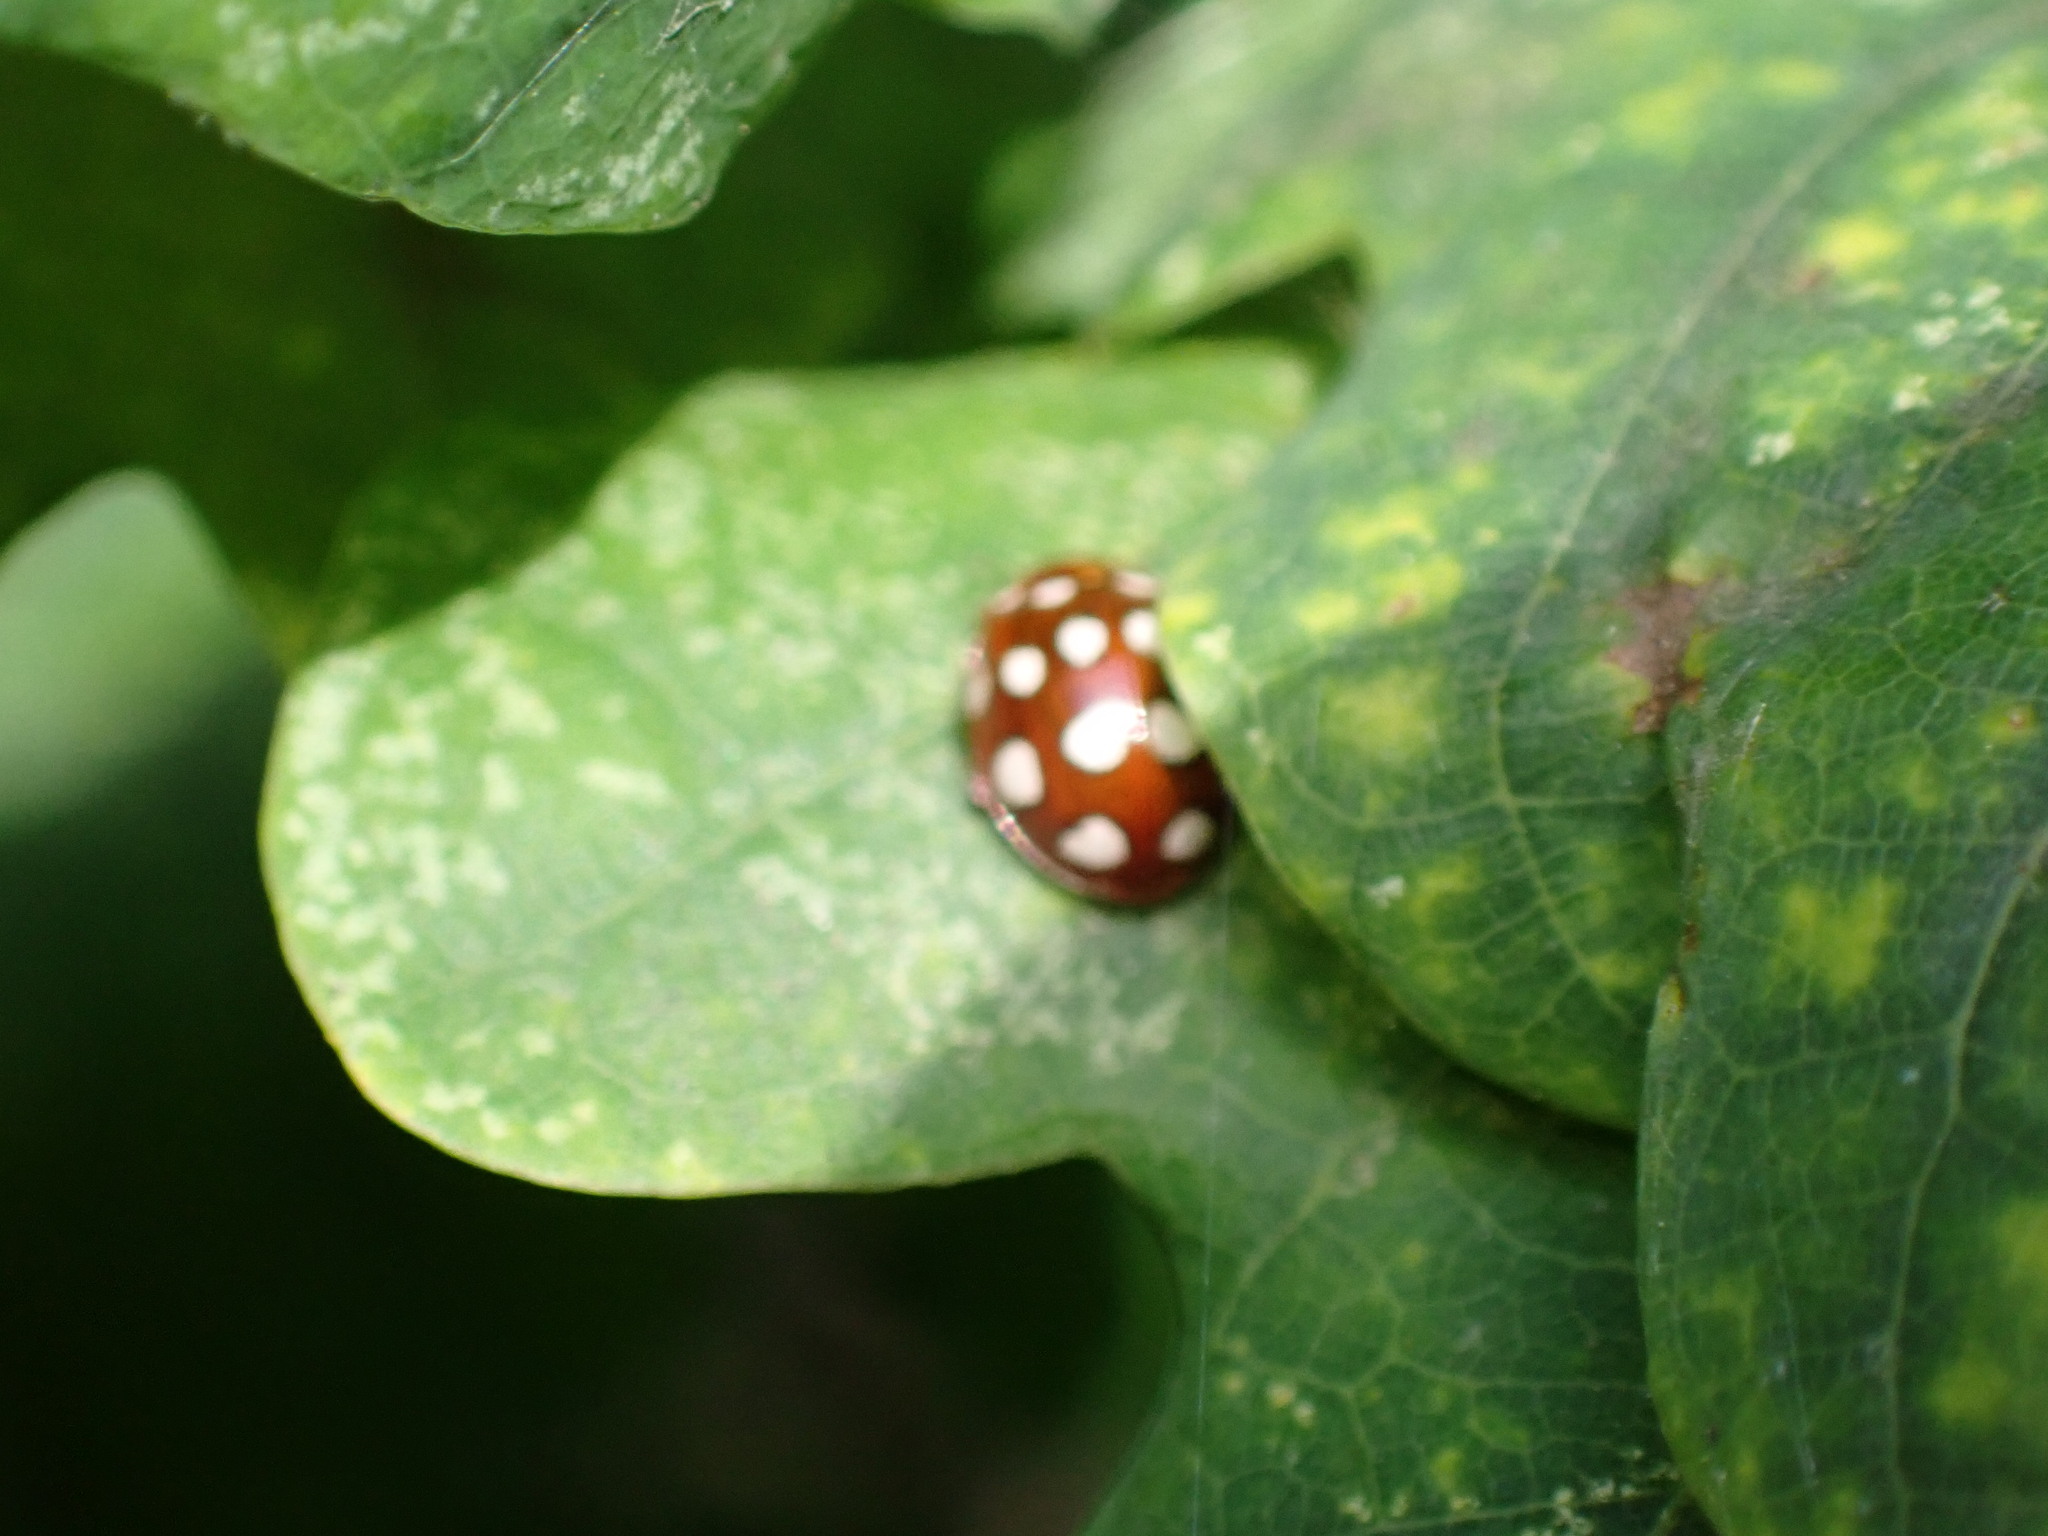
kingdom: Animalia
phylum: Arthropoda
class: Insecta
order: Coleoptera
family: Coccinellidae
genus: Calvia
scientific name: Calvia quatuordecimguttata
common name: Cream-spot ladybird
